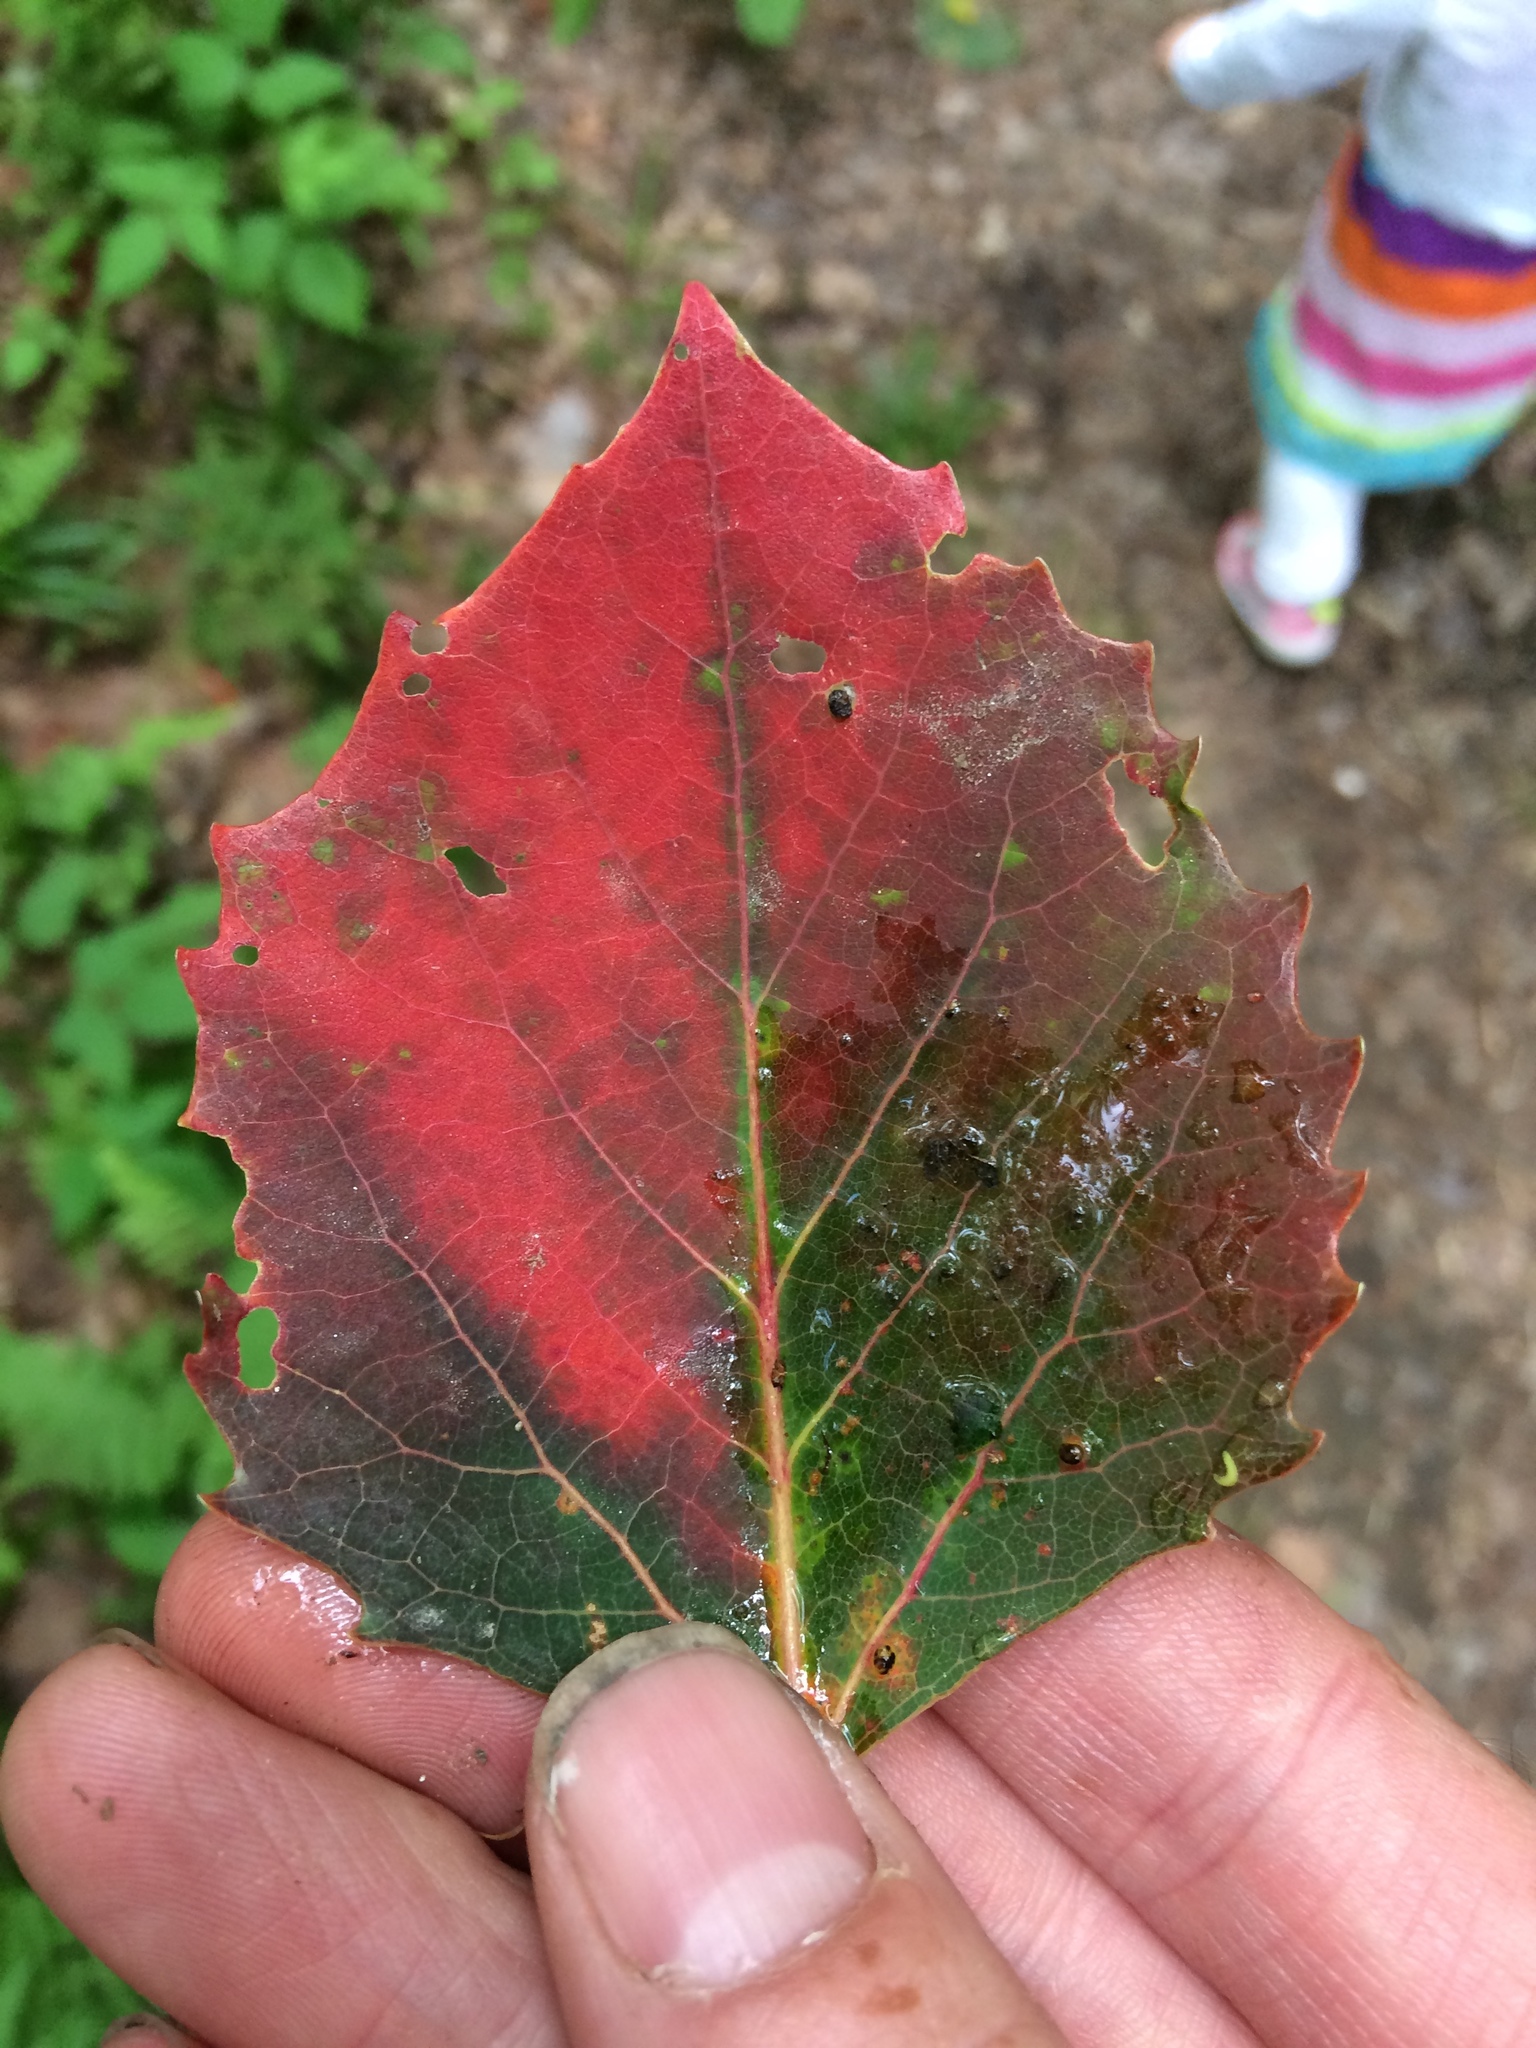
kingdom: Plantae
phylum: Tracheophyta
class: Magnoliopsida
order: Malpighiales
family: Salicaceae
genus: Populus
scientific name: Populus grandidentata
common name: Bigtooth aspen
